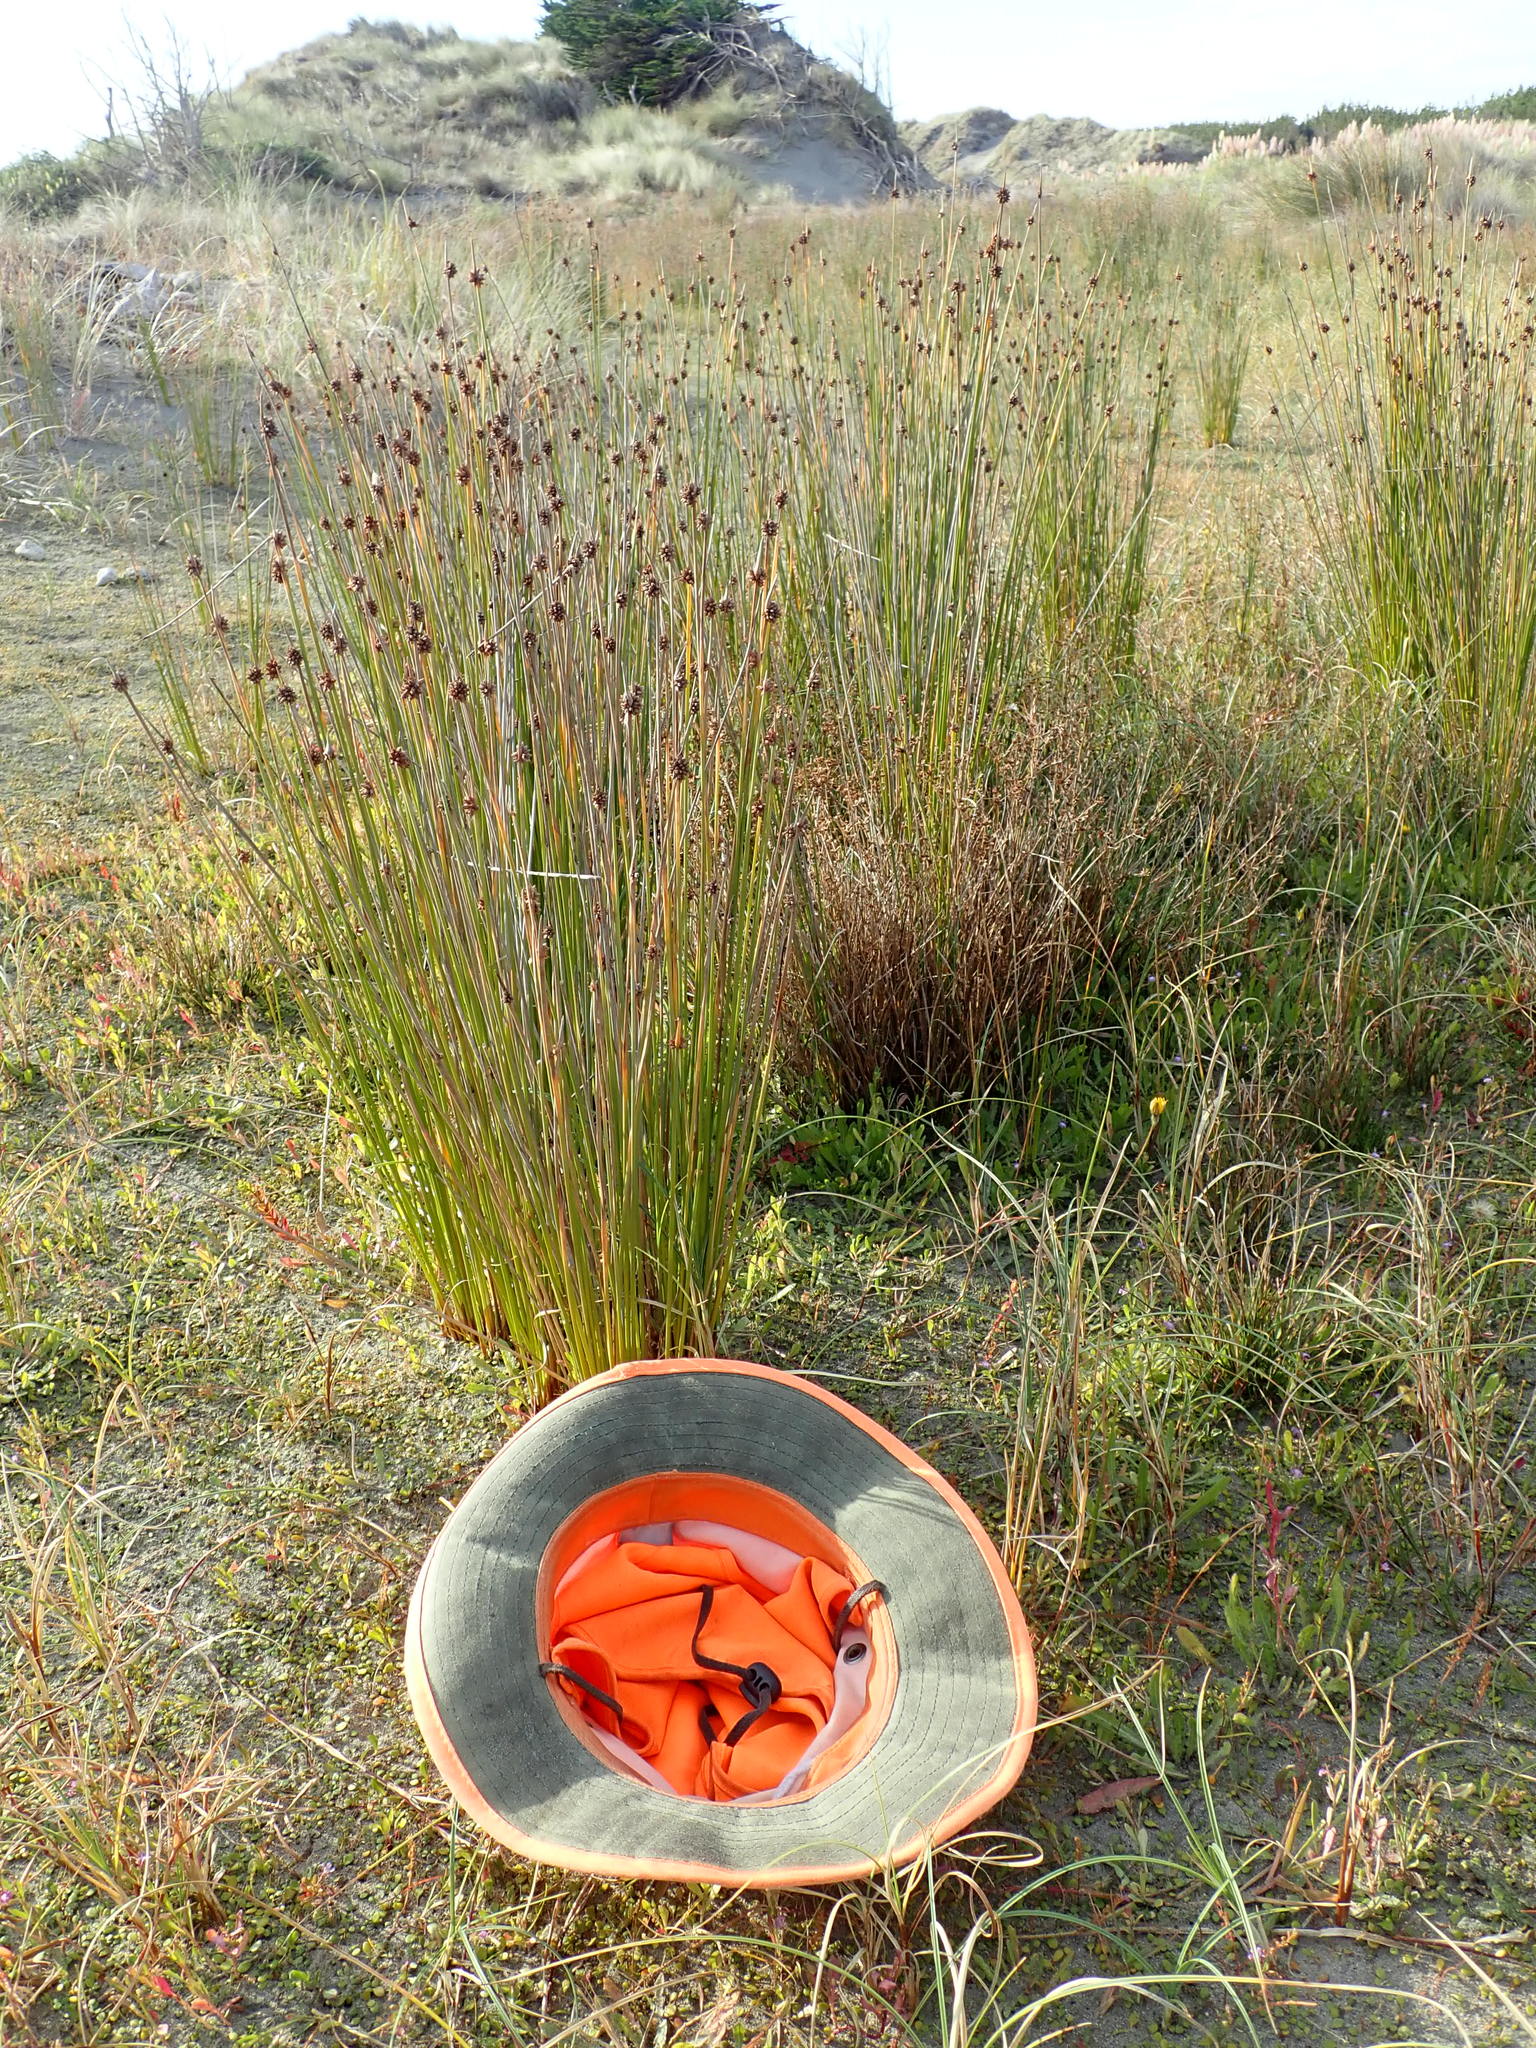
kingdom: Plantae
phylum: Tracheophyta
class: Liliopsida
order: Alismatales
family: Juncaginaceae
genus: Triglochin
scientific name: Triglochin striata
